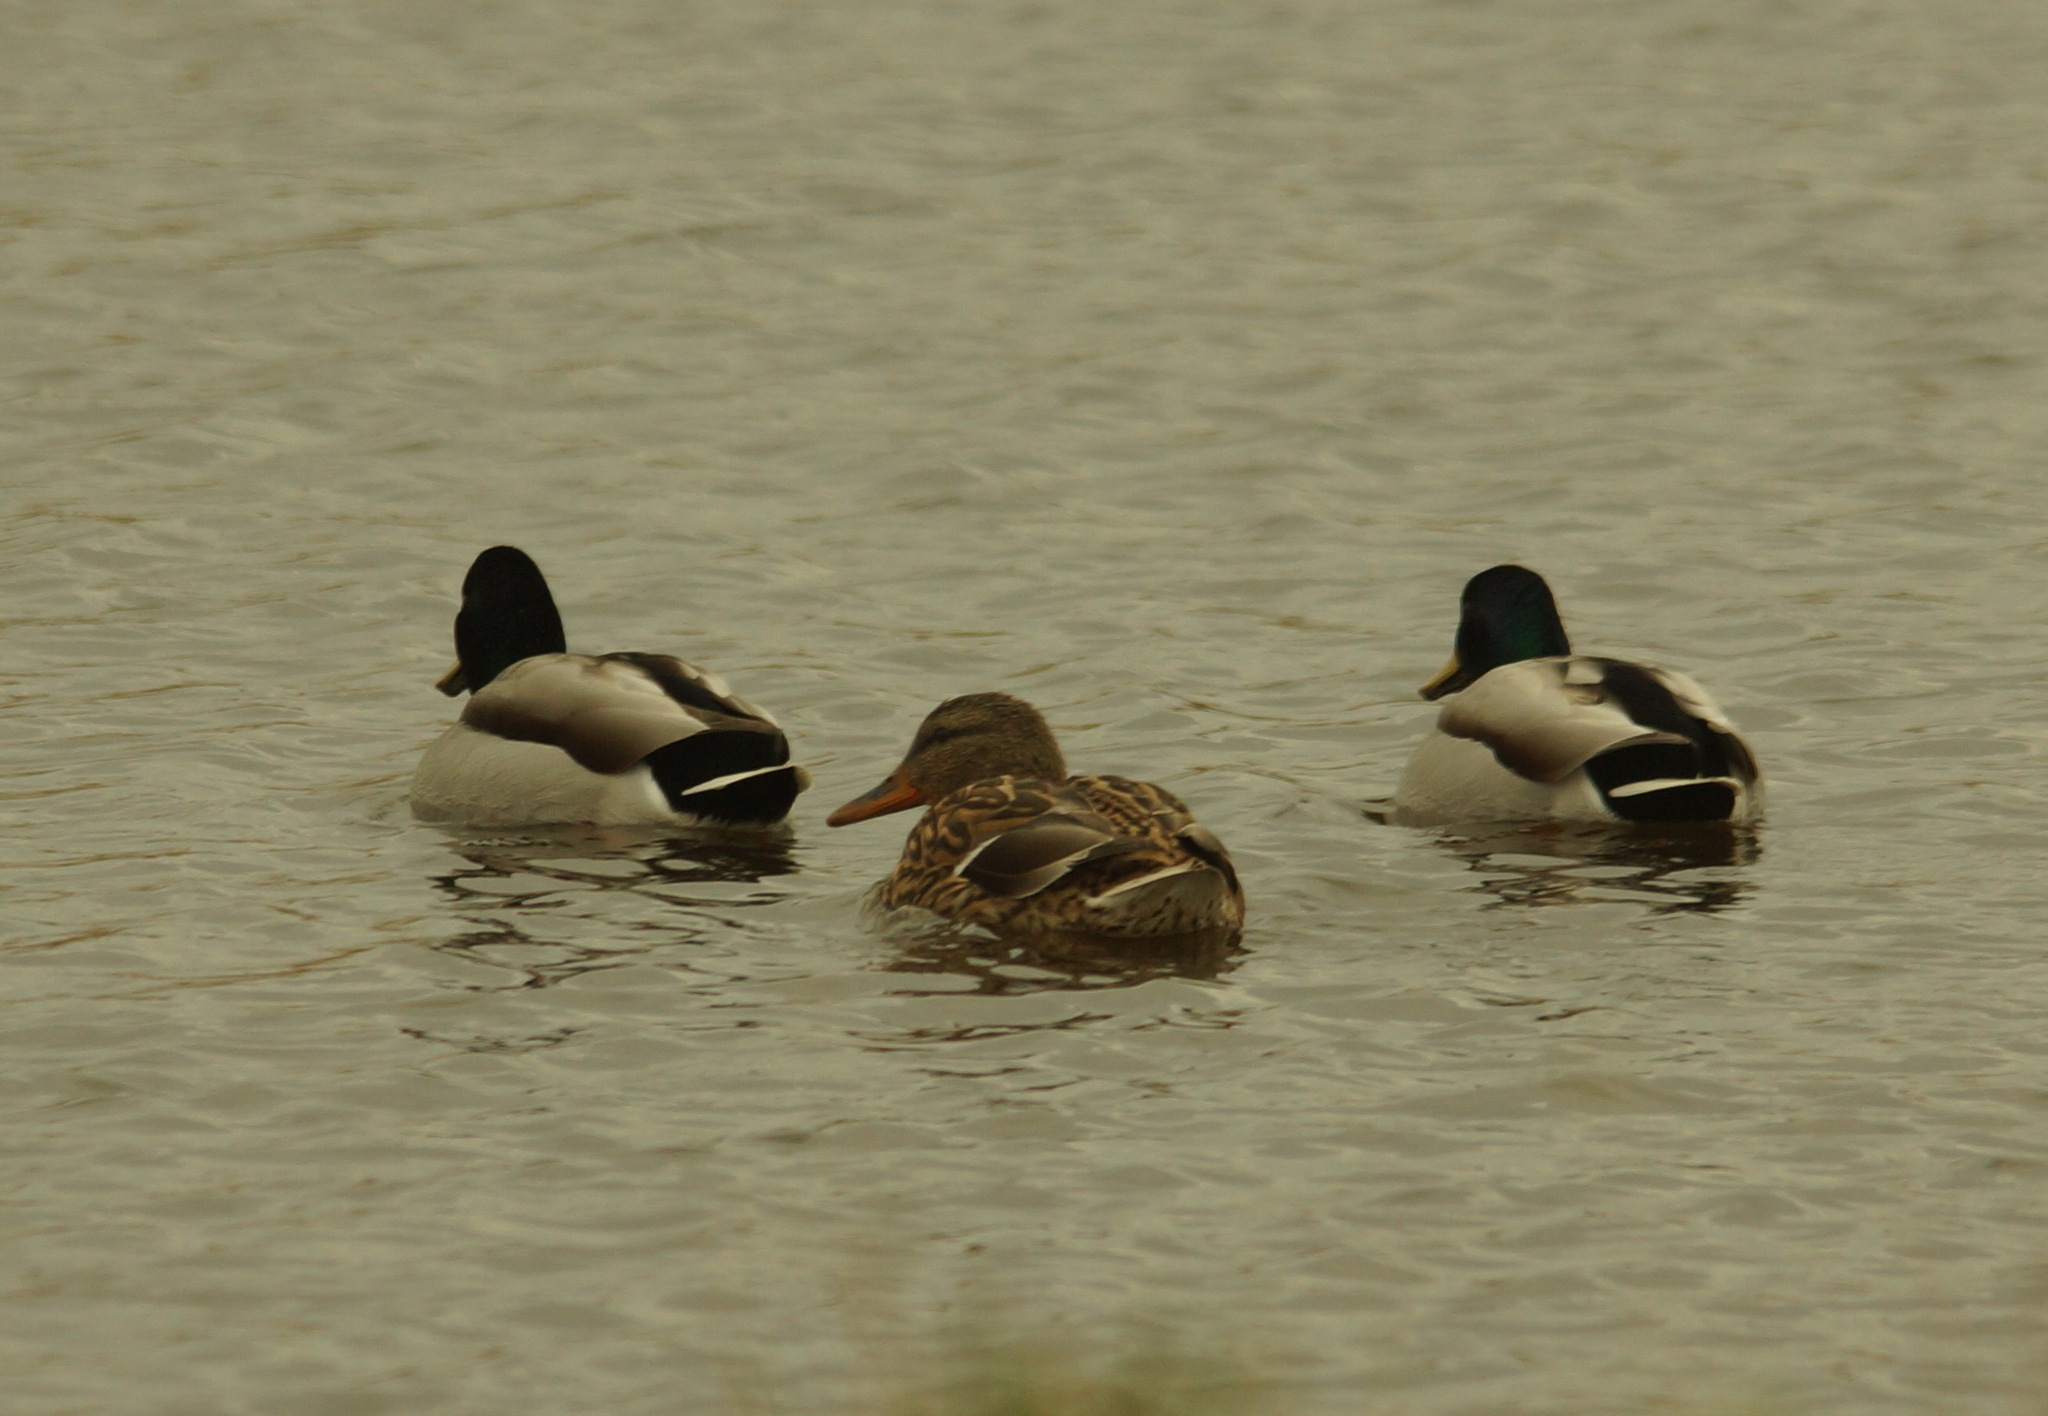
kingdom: Animalia
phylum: Chordata
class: Aves
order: Anseriformes
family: Anatidae
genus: Anas
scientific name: Anas platyrhynchos
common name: Mallard
